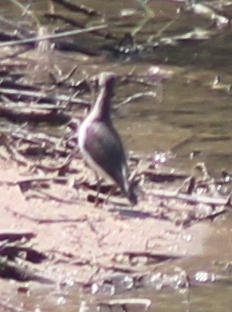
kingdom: Animalia
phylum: Chordata
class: Aves
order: Charadriiformes
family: Scolopacidae
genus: Actitis
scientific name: Actitis macularius
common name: Spotted sandpiper
